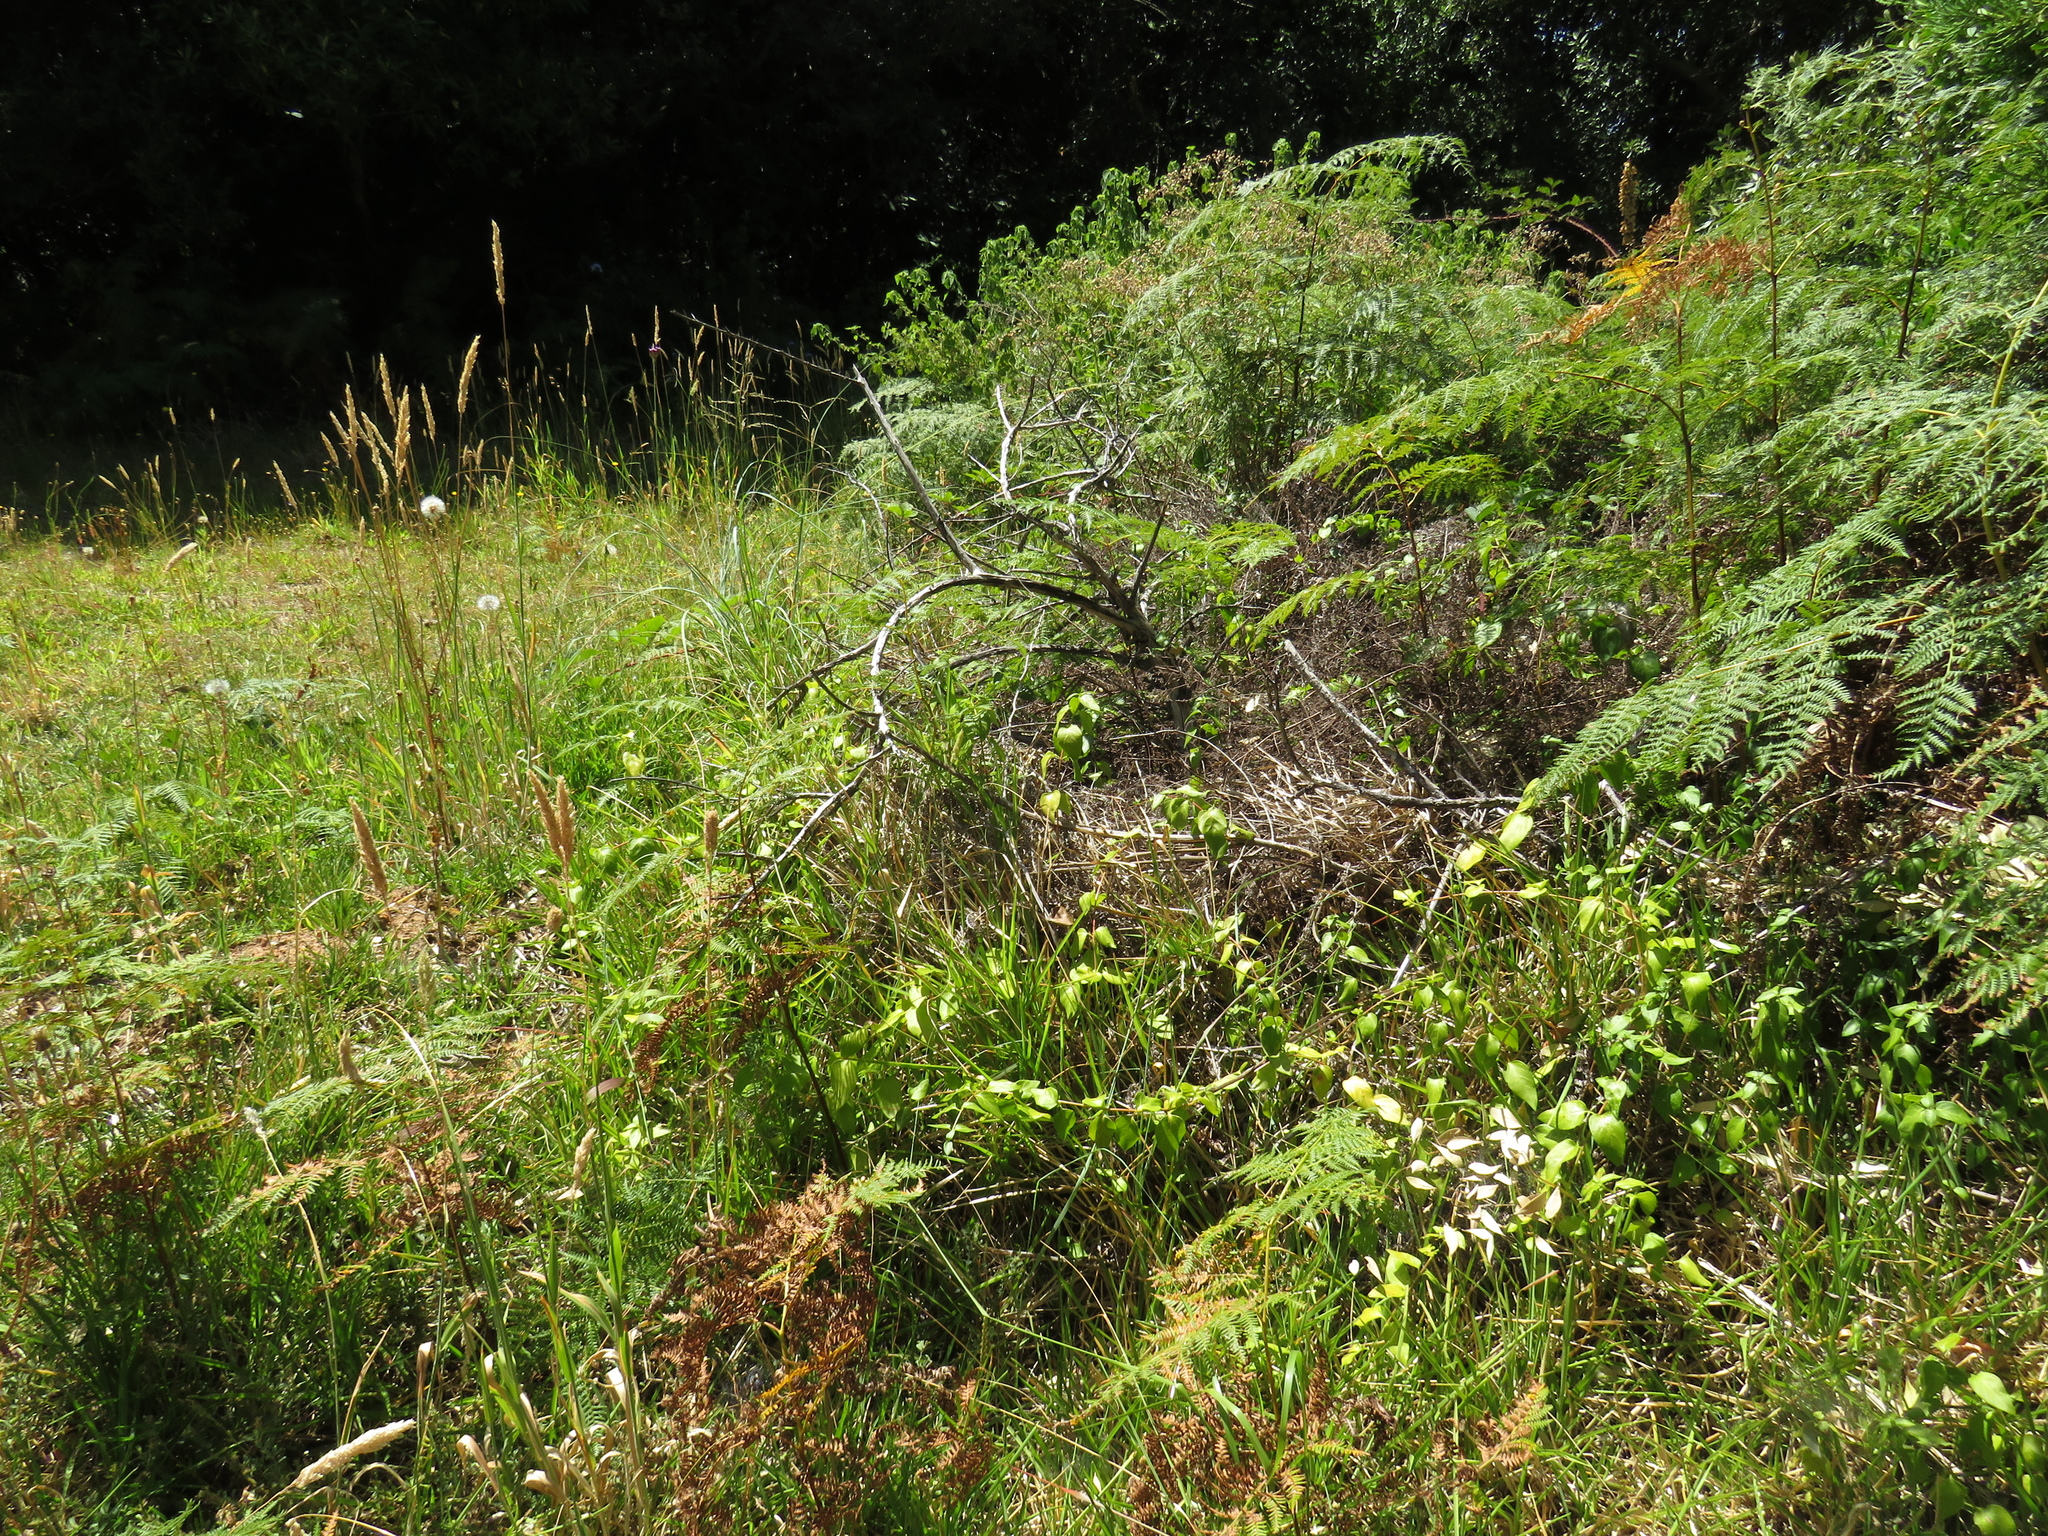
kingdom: Plantae
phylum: Tracheophyta
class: Magnoliopsida
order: Gentianales
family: Apocynaceae
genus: Vinca
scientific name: Vinca major
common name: Greater periwinkle
